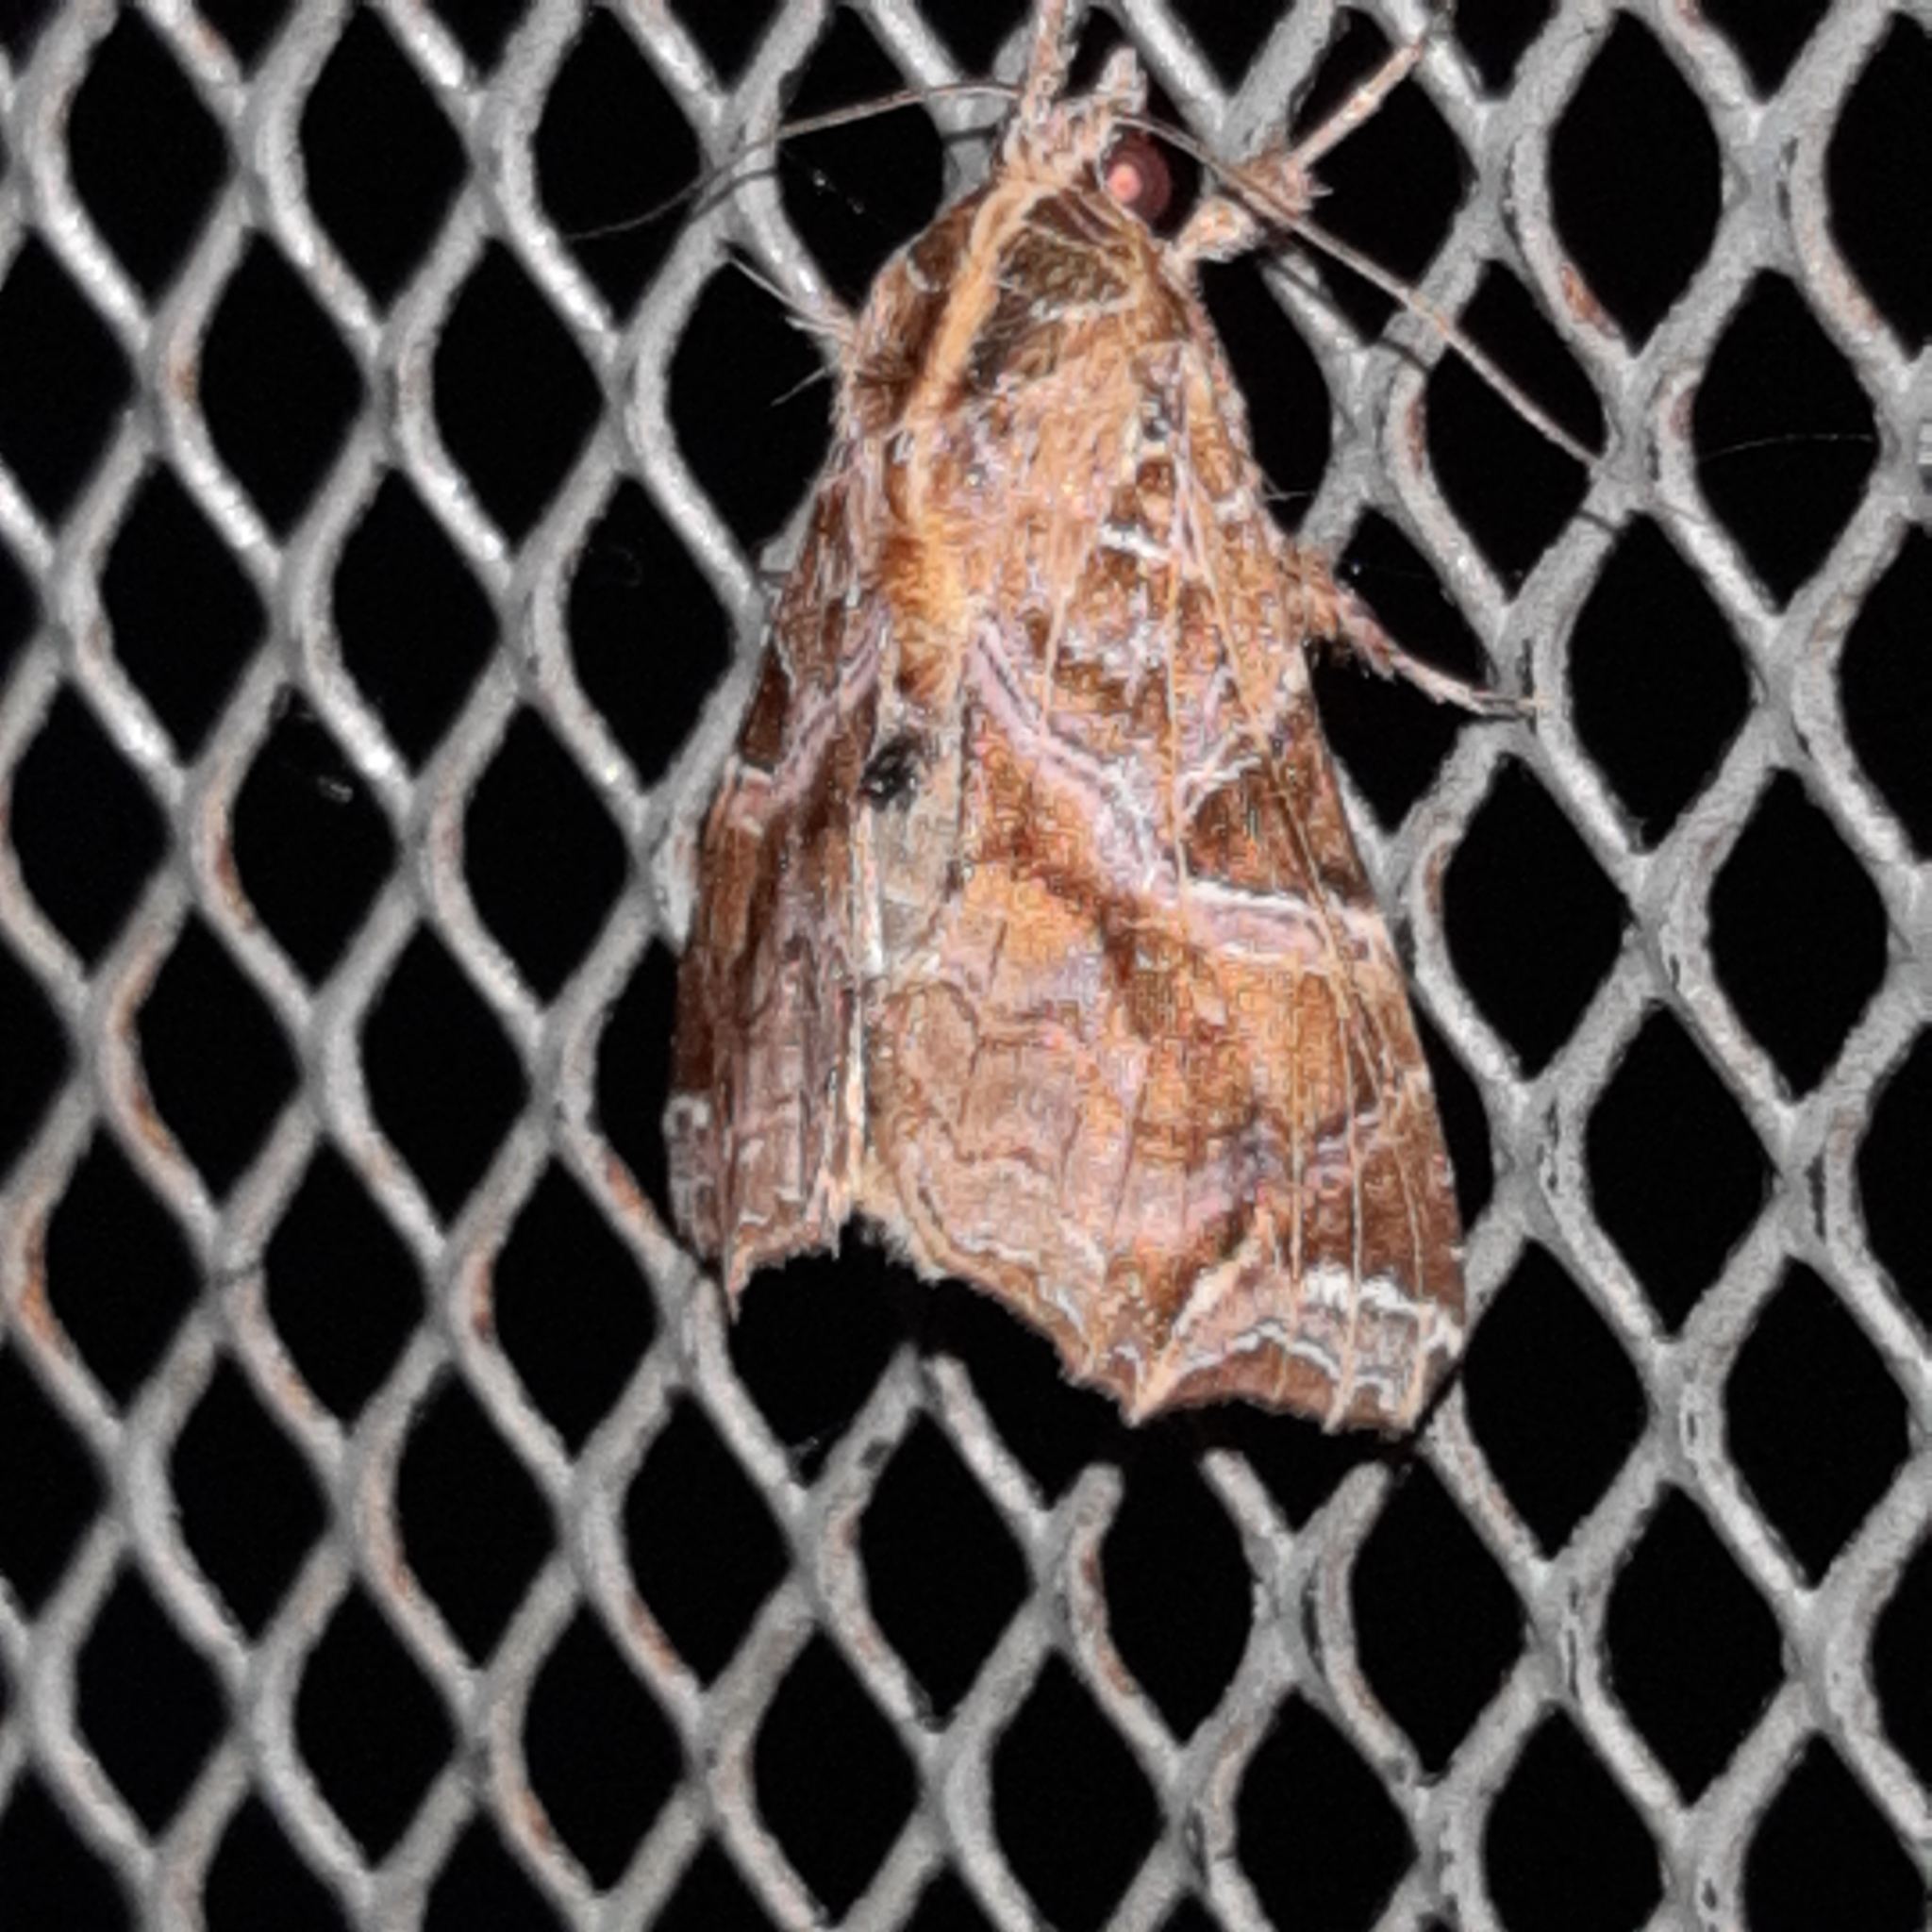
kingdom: Animalia
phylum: Arthropoda
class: Insecta
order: Lepidoptera
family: Noctuidae
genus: Callopistria
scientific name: Callopistria floridensis
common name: Florida fern moth
